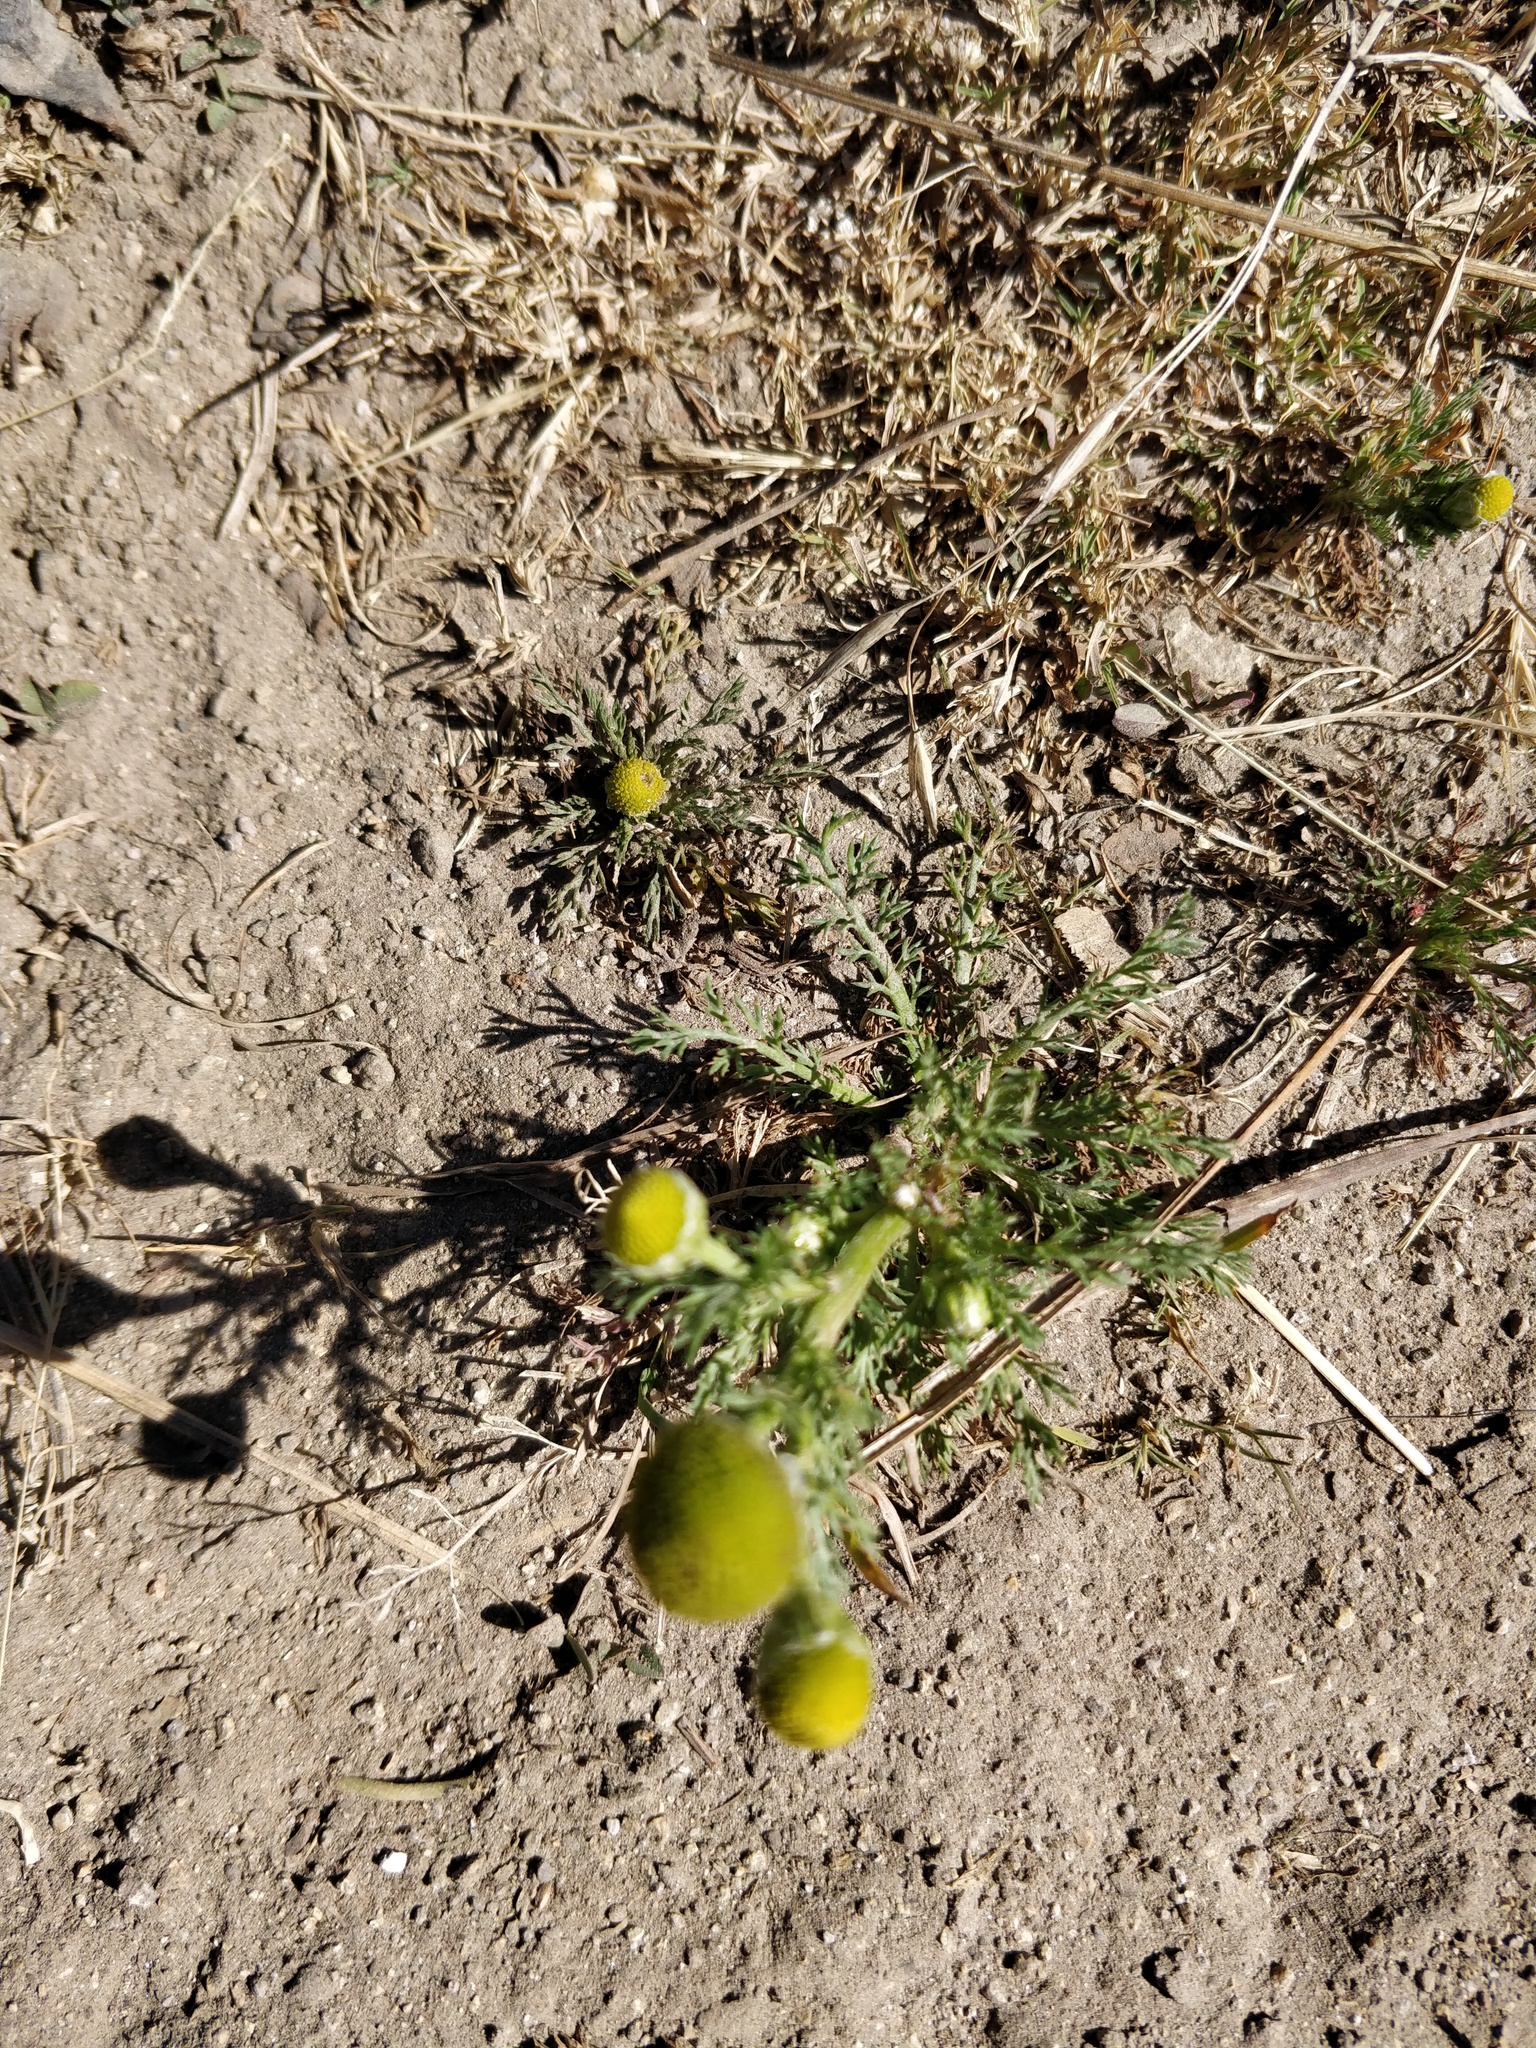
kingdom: Plantae
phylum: Tracheophyta
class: Magnoliopsida
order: Asterales
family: Asteraceae
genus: Matricaria
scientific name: Matricaria discoidea
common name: Disc mayweed
